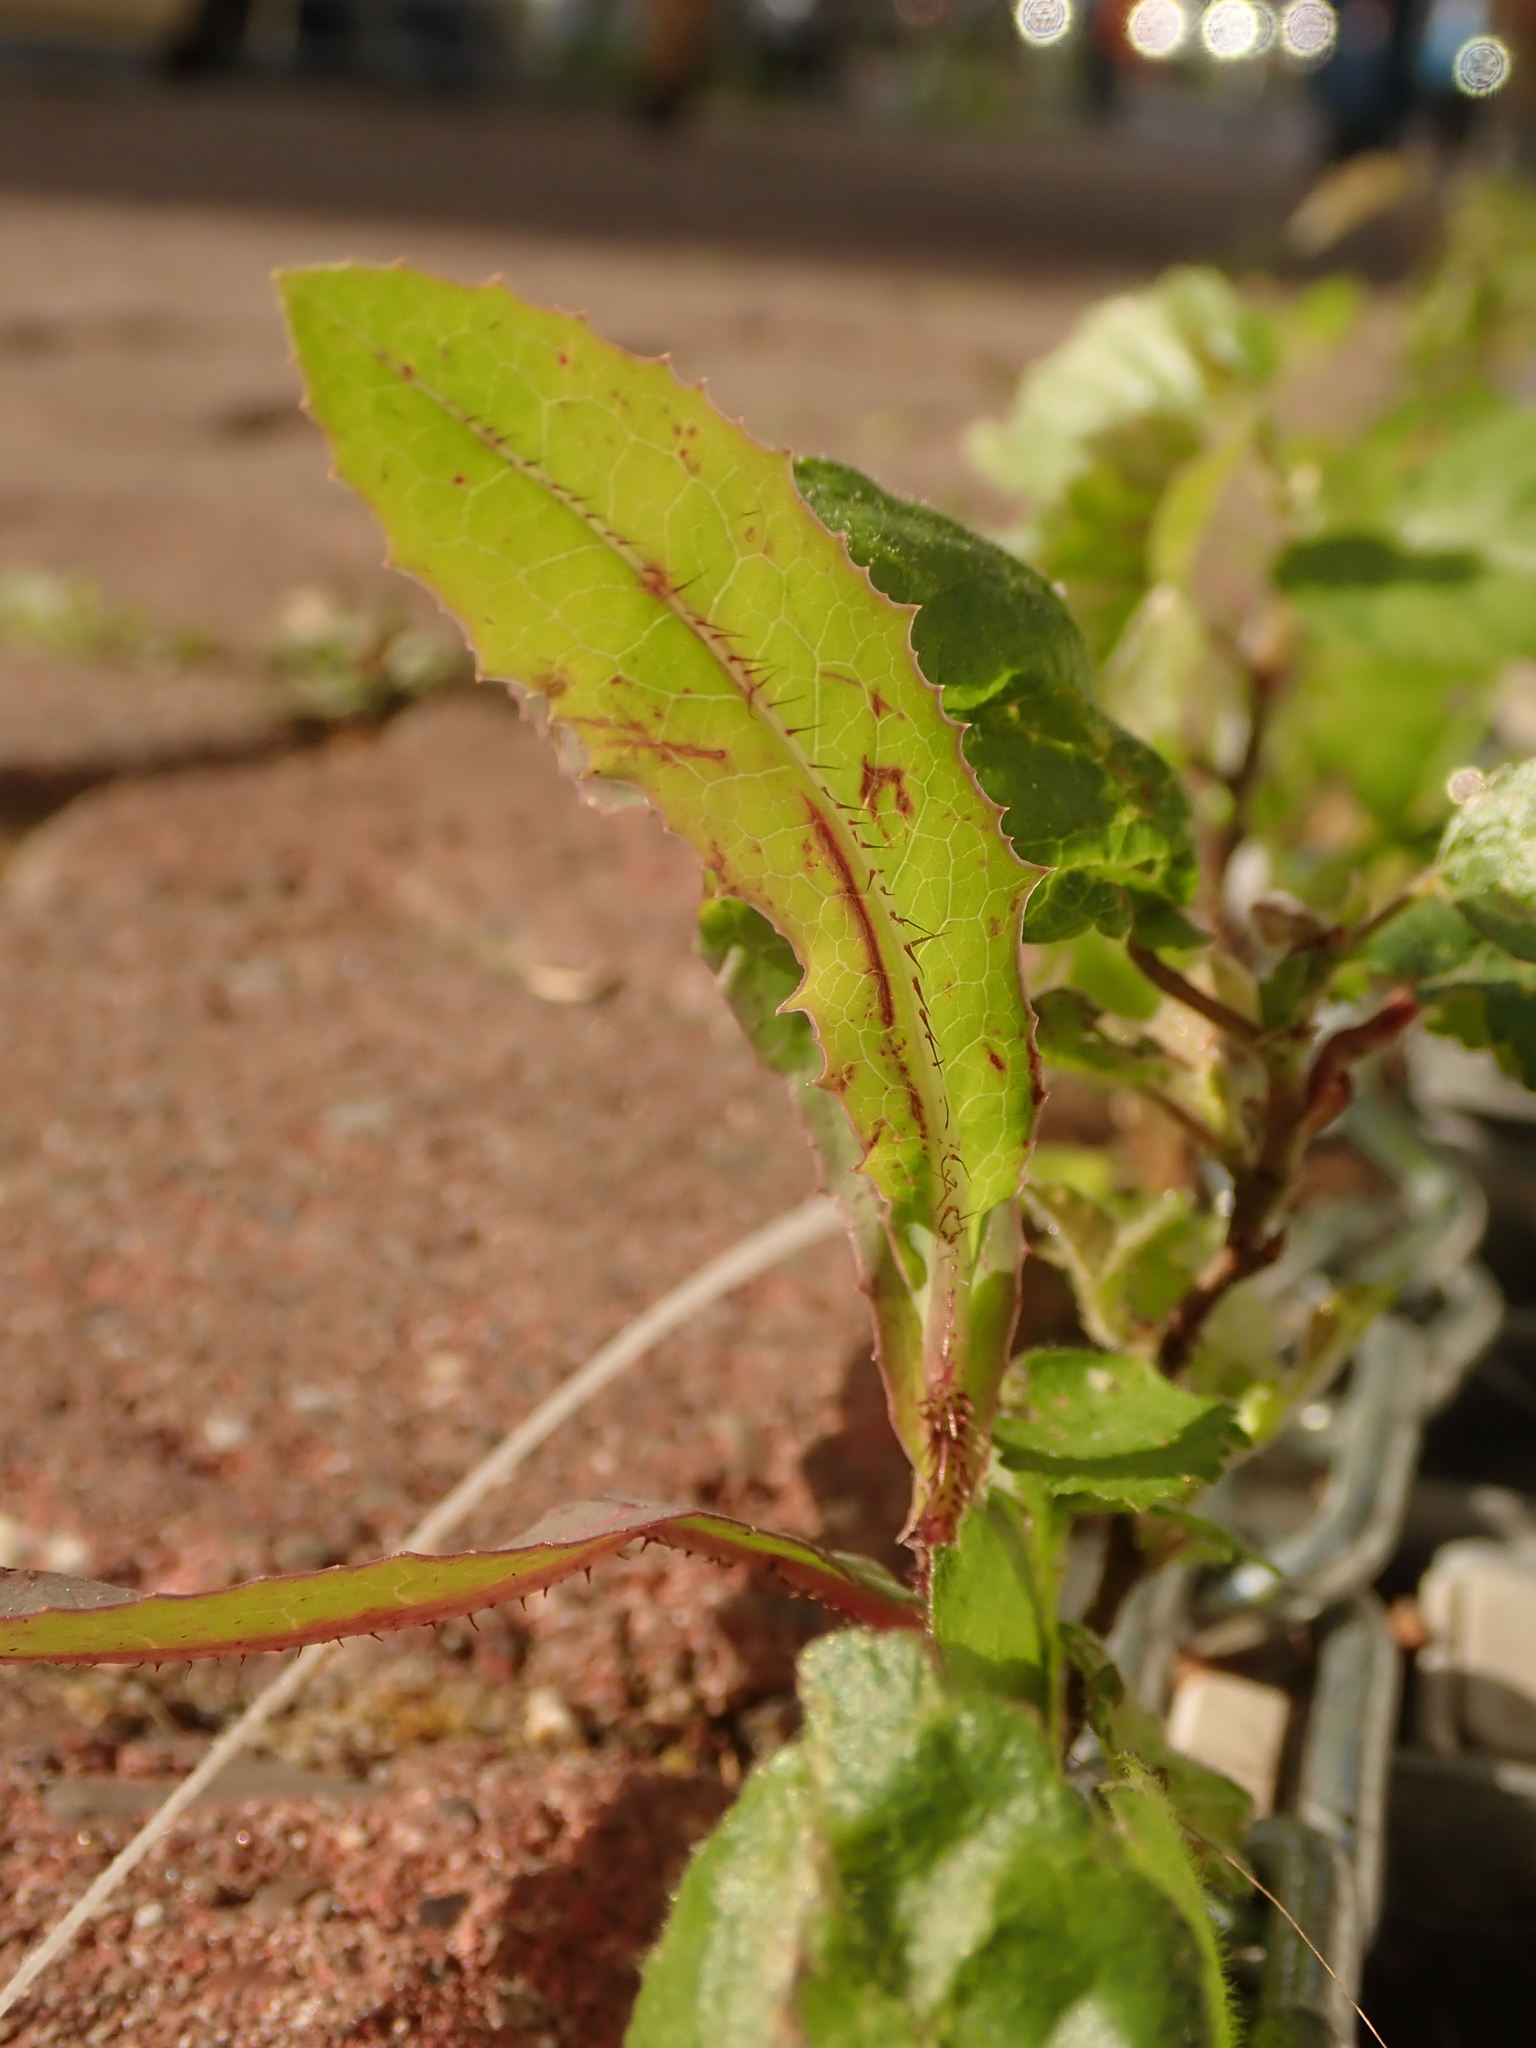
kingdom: Plantae
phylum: Tracheophyta
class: Magnoliopsida
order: Asterales
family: Asteraceae
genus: Lactuca
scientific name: Lactuca serriola
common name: Prickly lettuce
